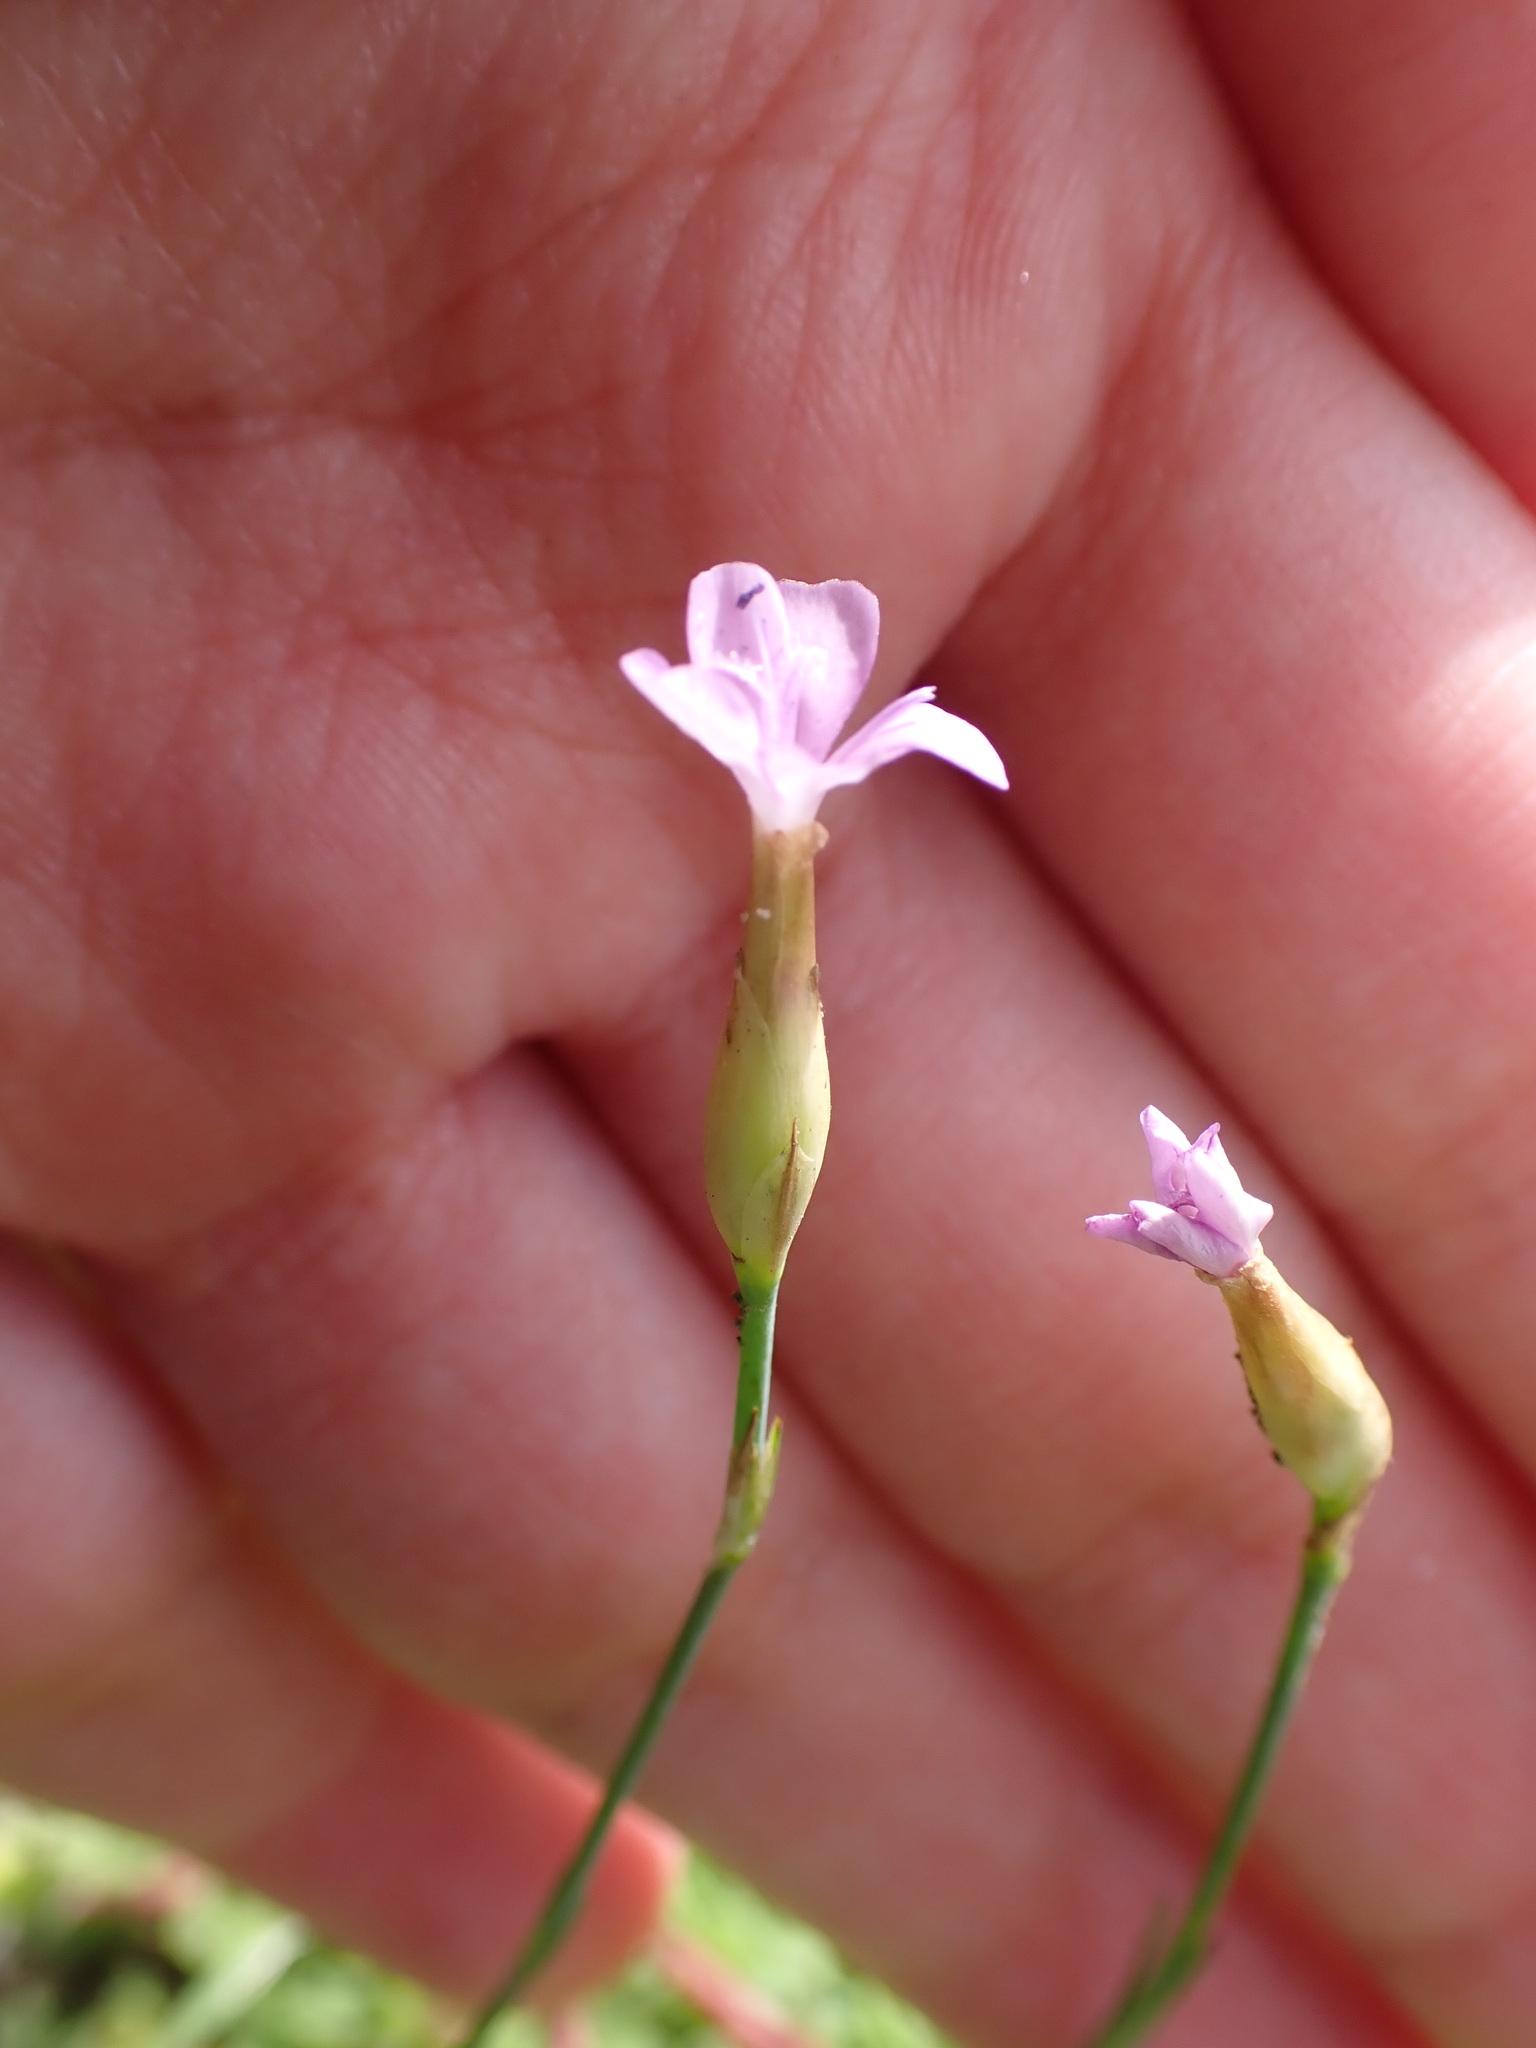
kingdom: Plantae
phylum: Tracheophyta
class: Magnoliopsida
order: Caryophyllales
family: Caryophyllaceae
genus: Petrorhagia
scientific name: Petrorhagia prolifera
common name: Proliferous pink
